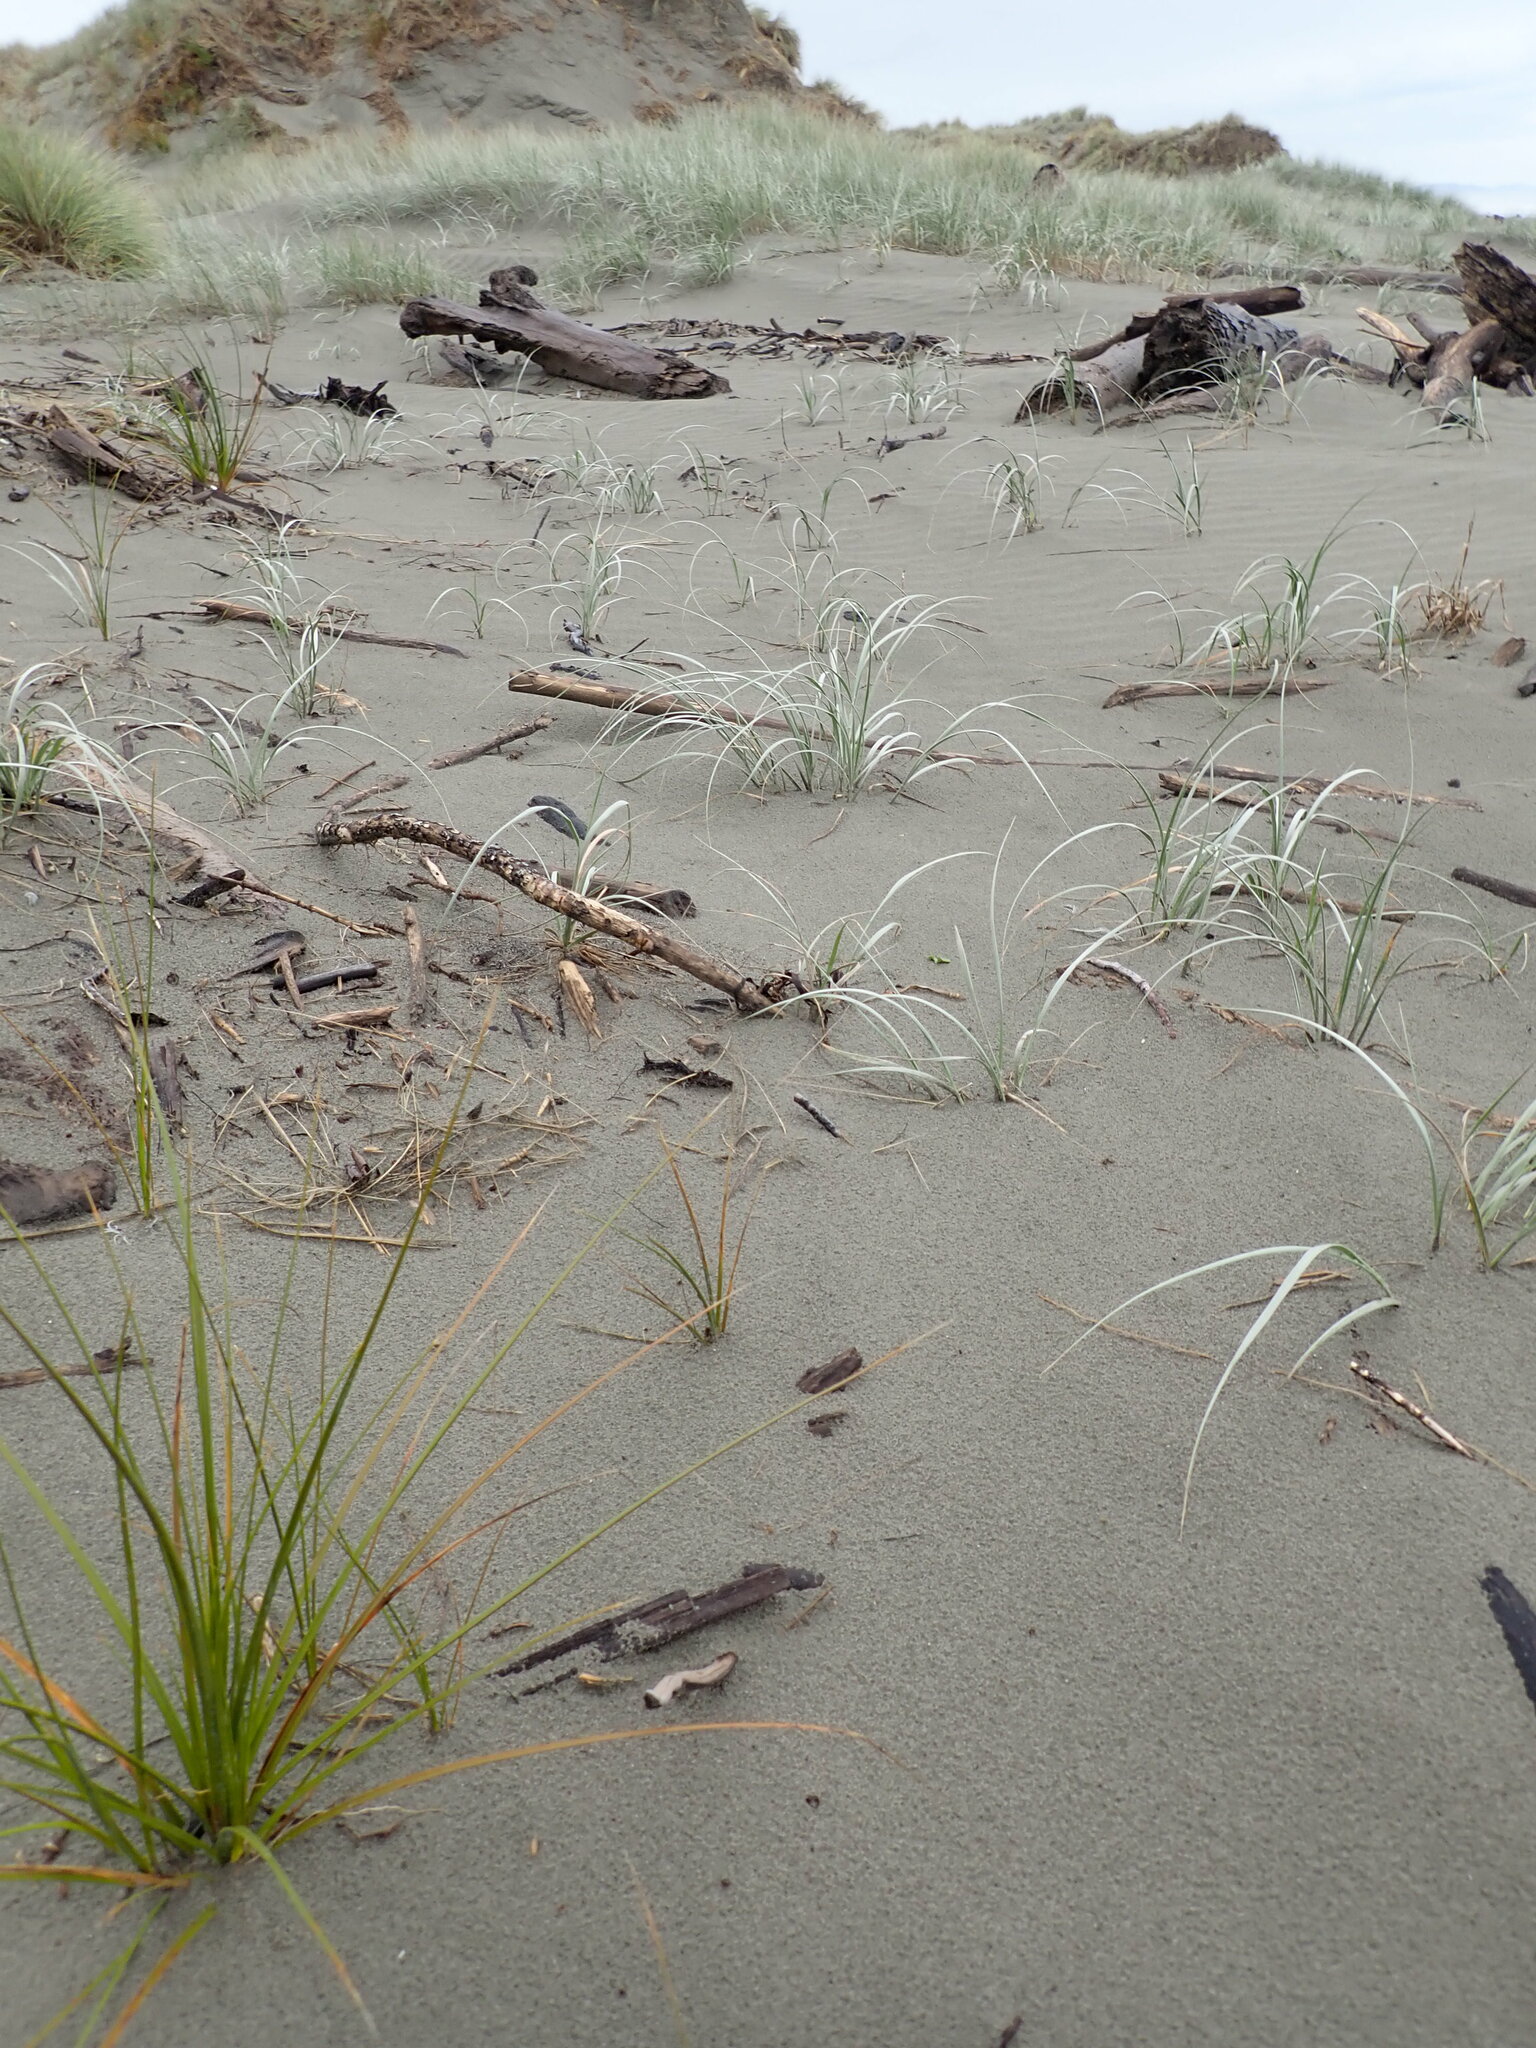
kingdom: Plantae
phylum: Tracheophyta
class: Liliopsida
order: Poales
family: Poaceae
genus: Spinifex
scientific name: Spinifex sericeus
